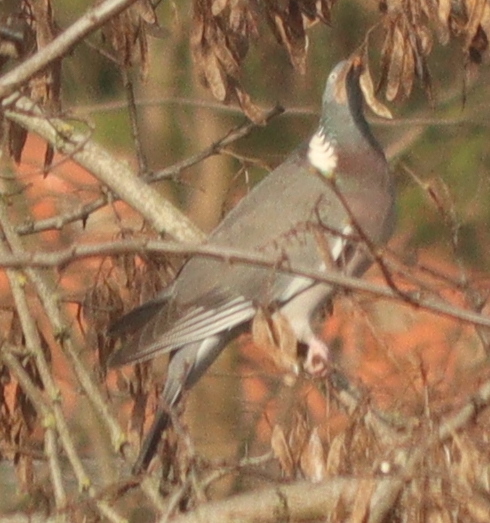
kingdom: Animalia
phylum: Chordata
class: Aves
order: Columbiformes
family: Columbidae
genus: Columba
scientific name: Columba palumbus
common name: Common wood pigeon
